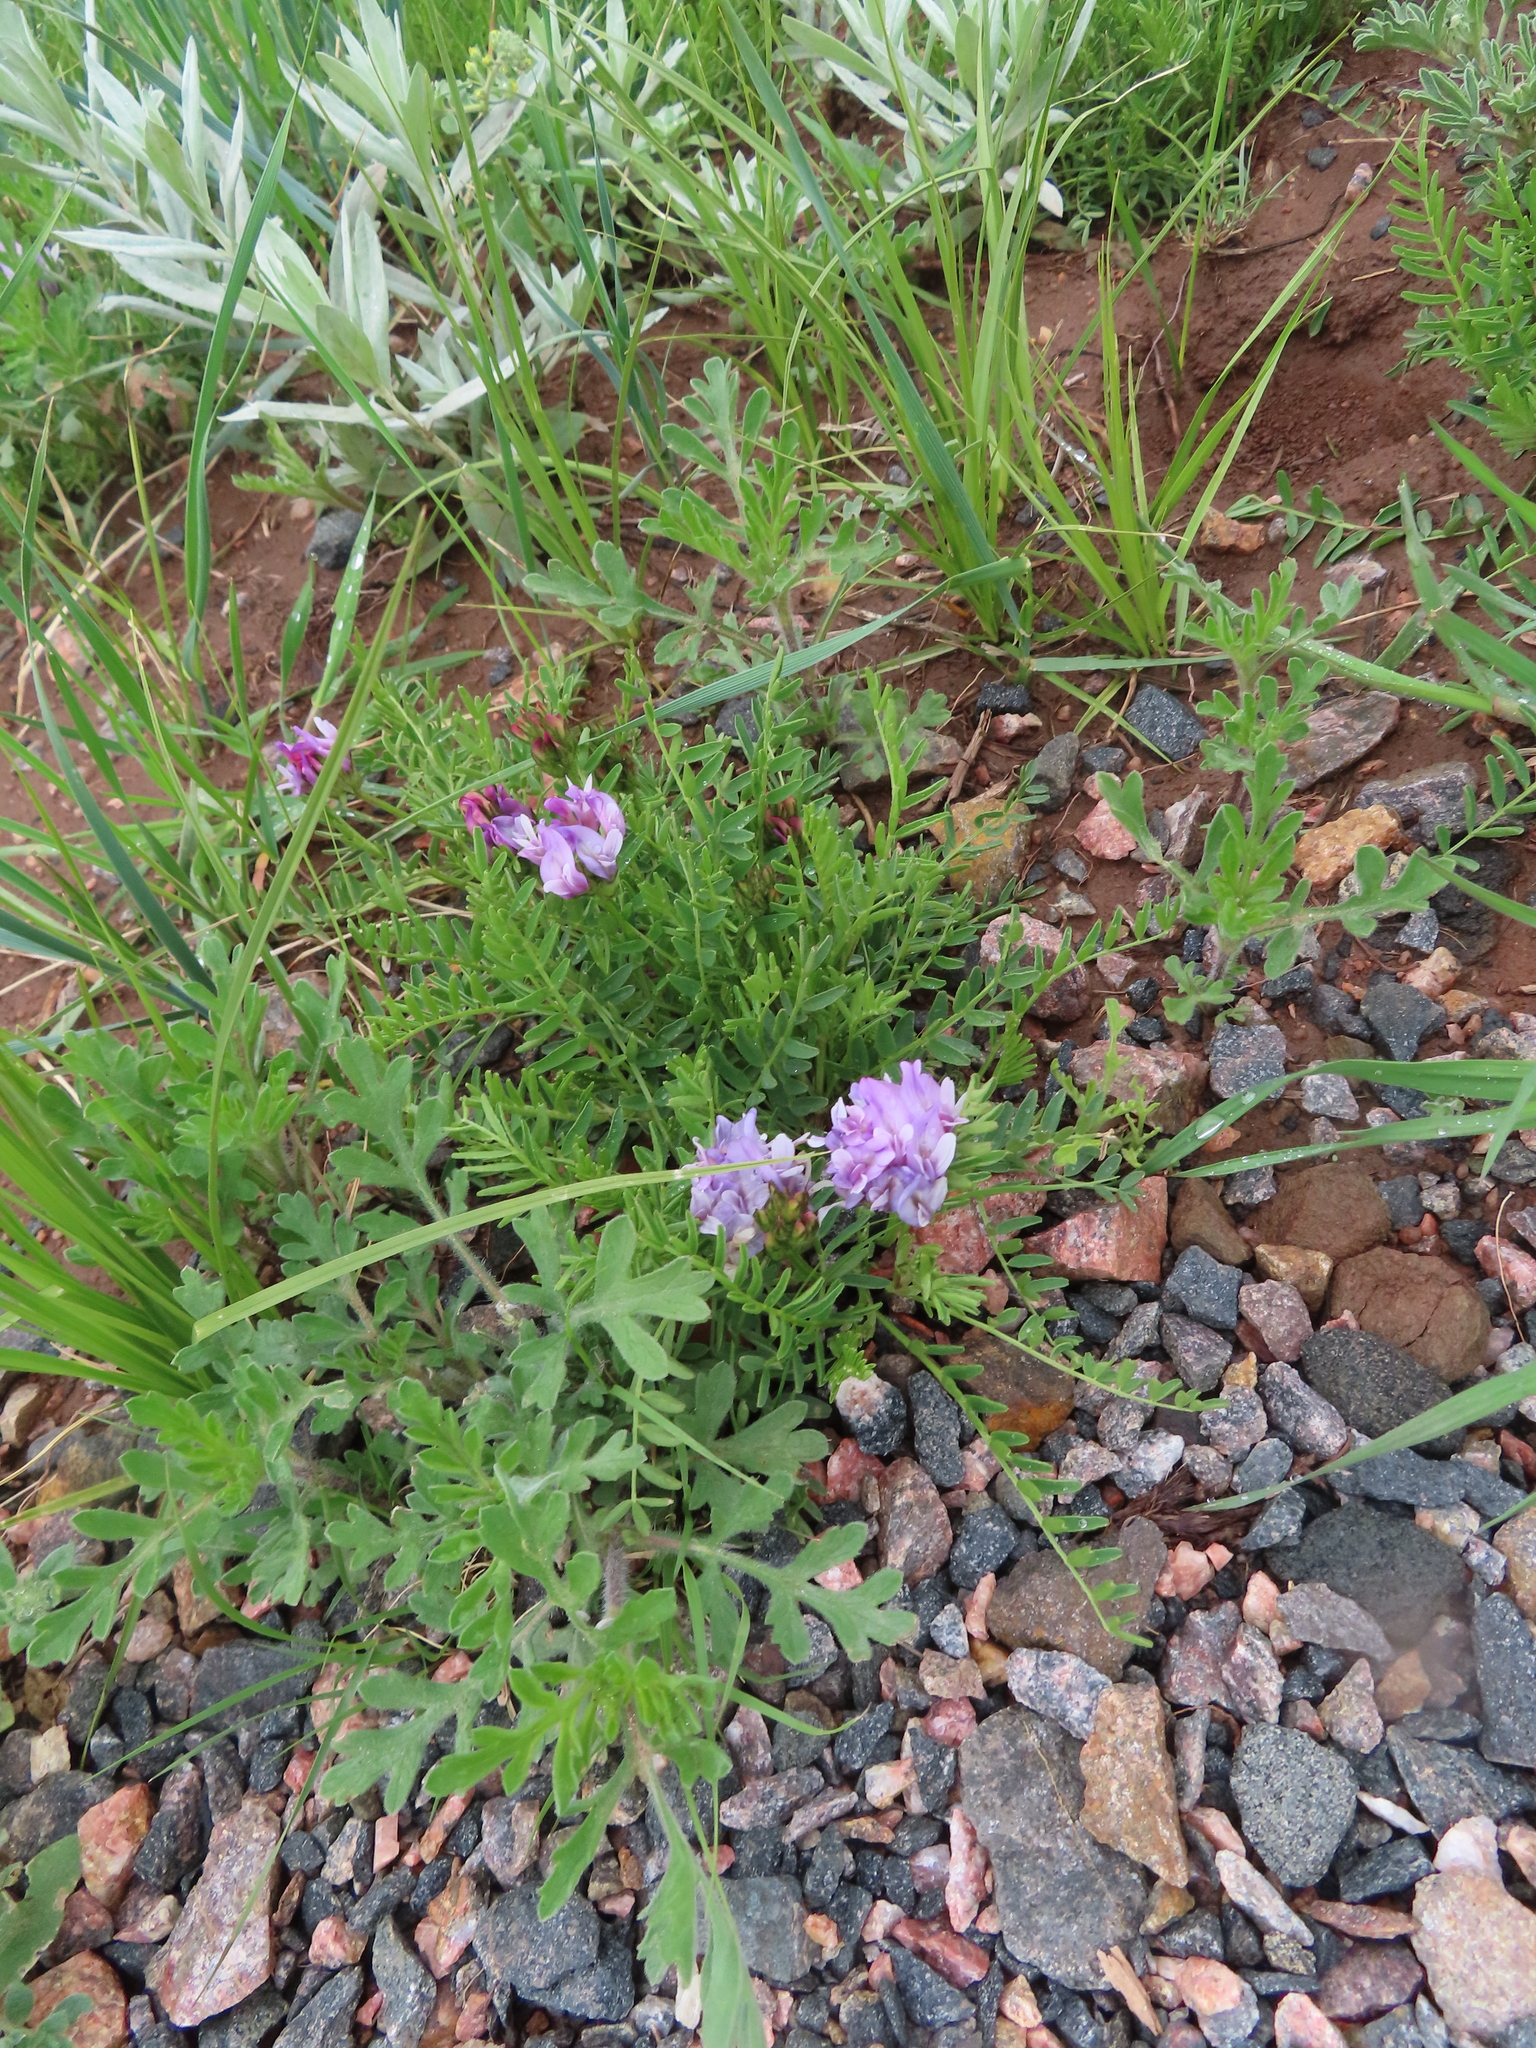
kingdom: Plantae
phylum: Tracheophyta
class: Magnoliopsida
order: Fabales
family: Fabaceae
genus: Astragalus
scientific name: Astragalus agrestis
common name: Field milk-vetch
